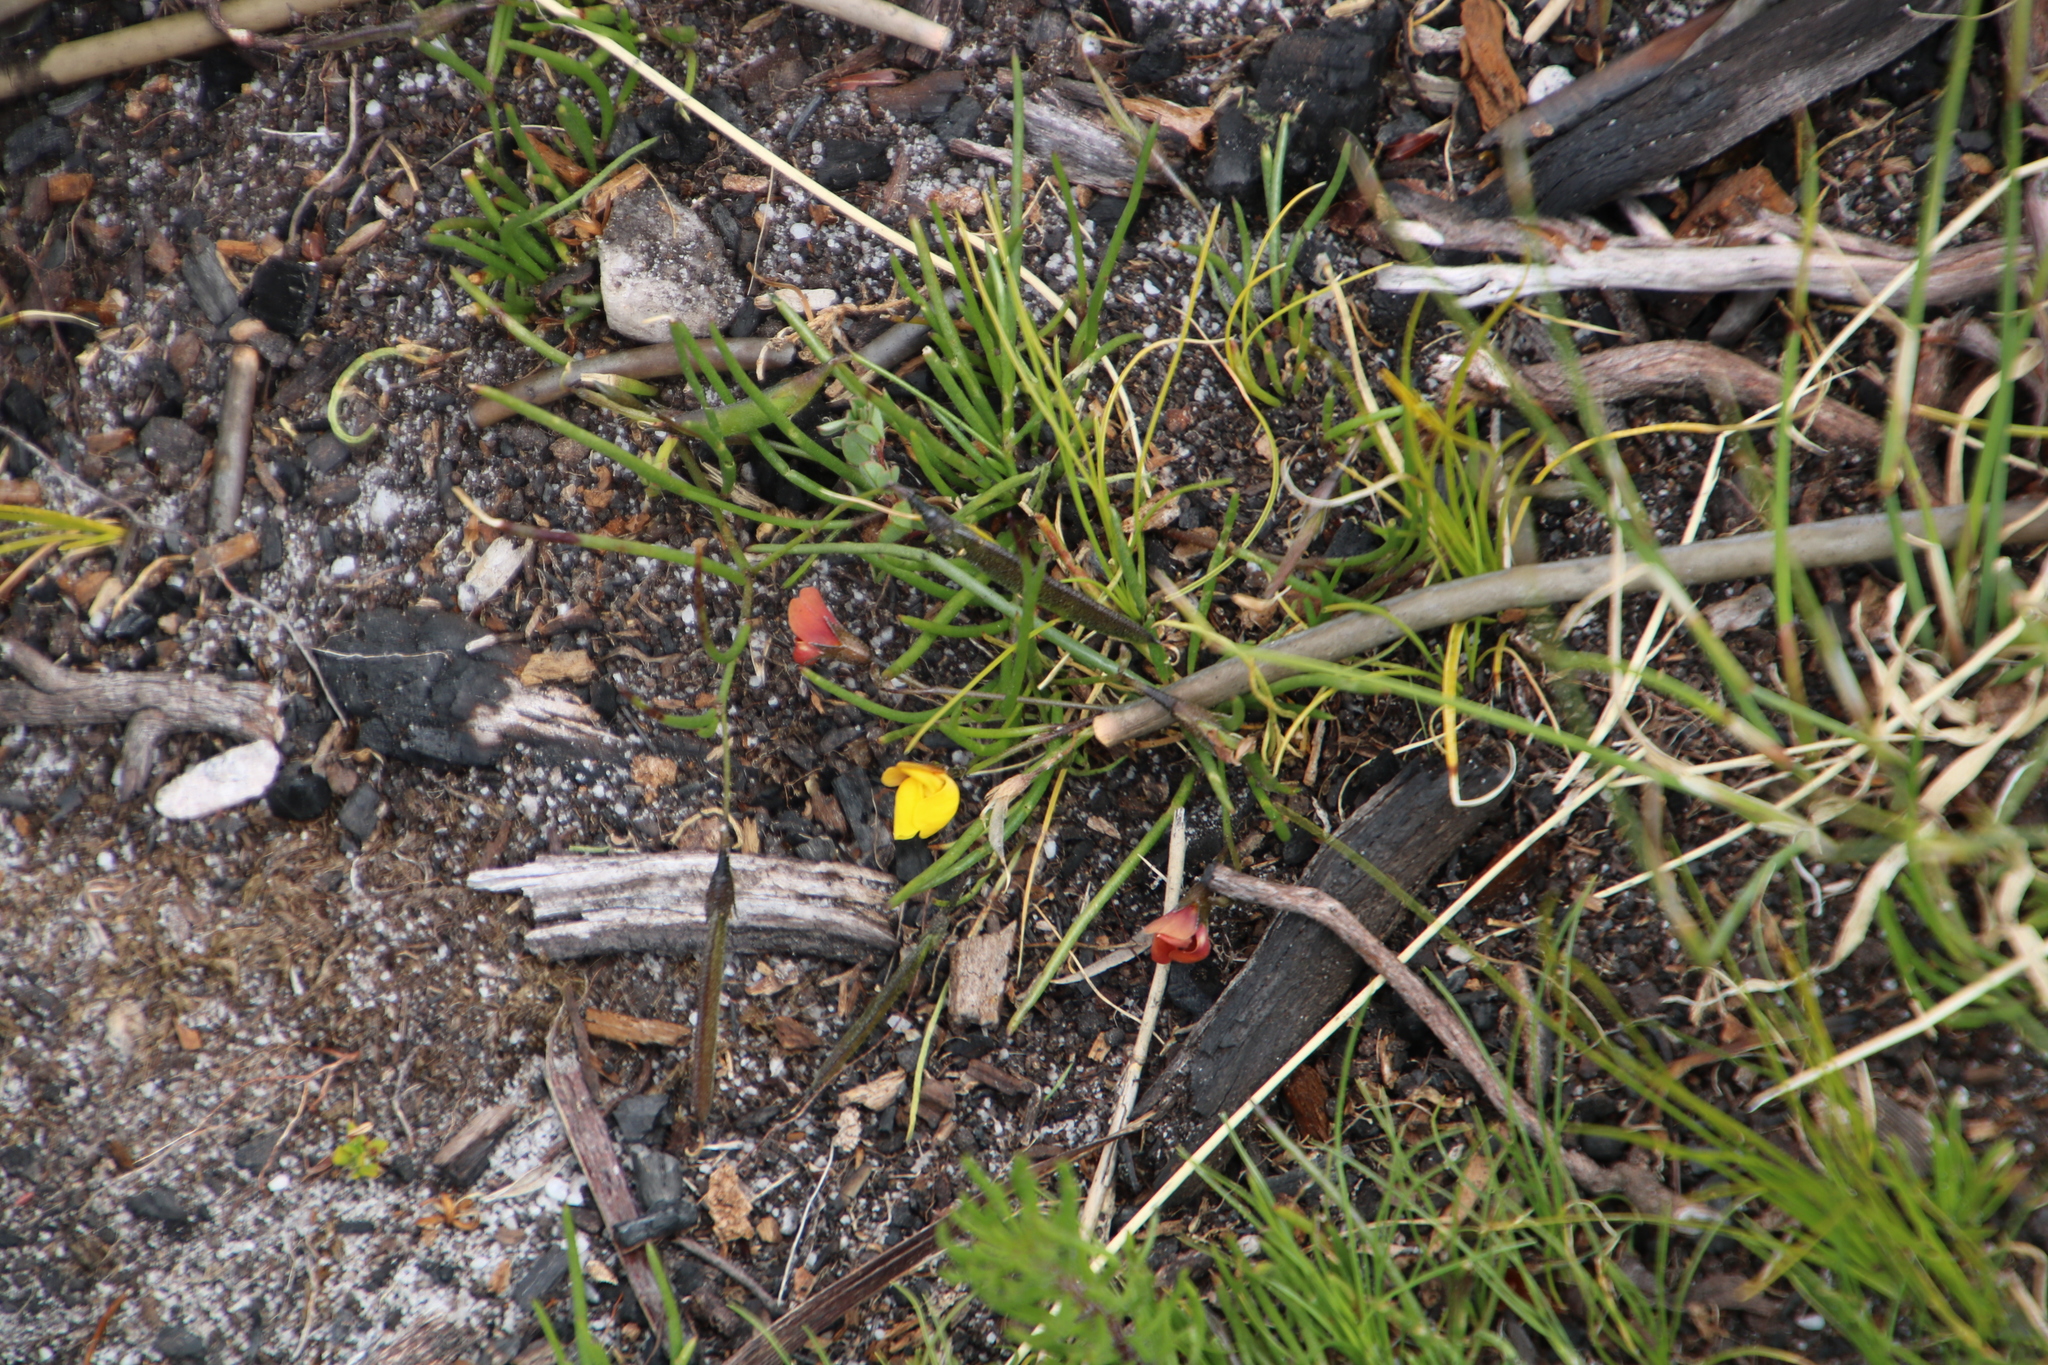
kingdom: Plantae
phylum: Tracheophyta
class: Magnoliopsida
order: Fabales
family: Fabaceae
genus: Lebeckia
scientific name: Lebeckia wrightii
